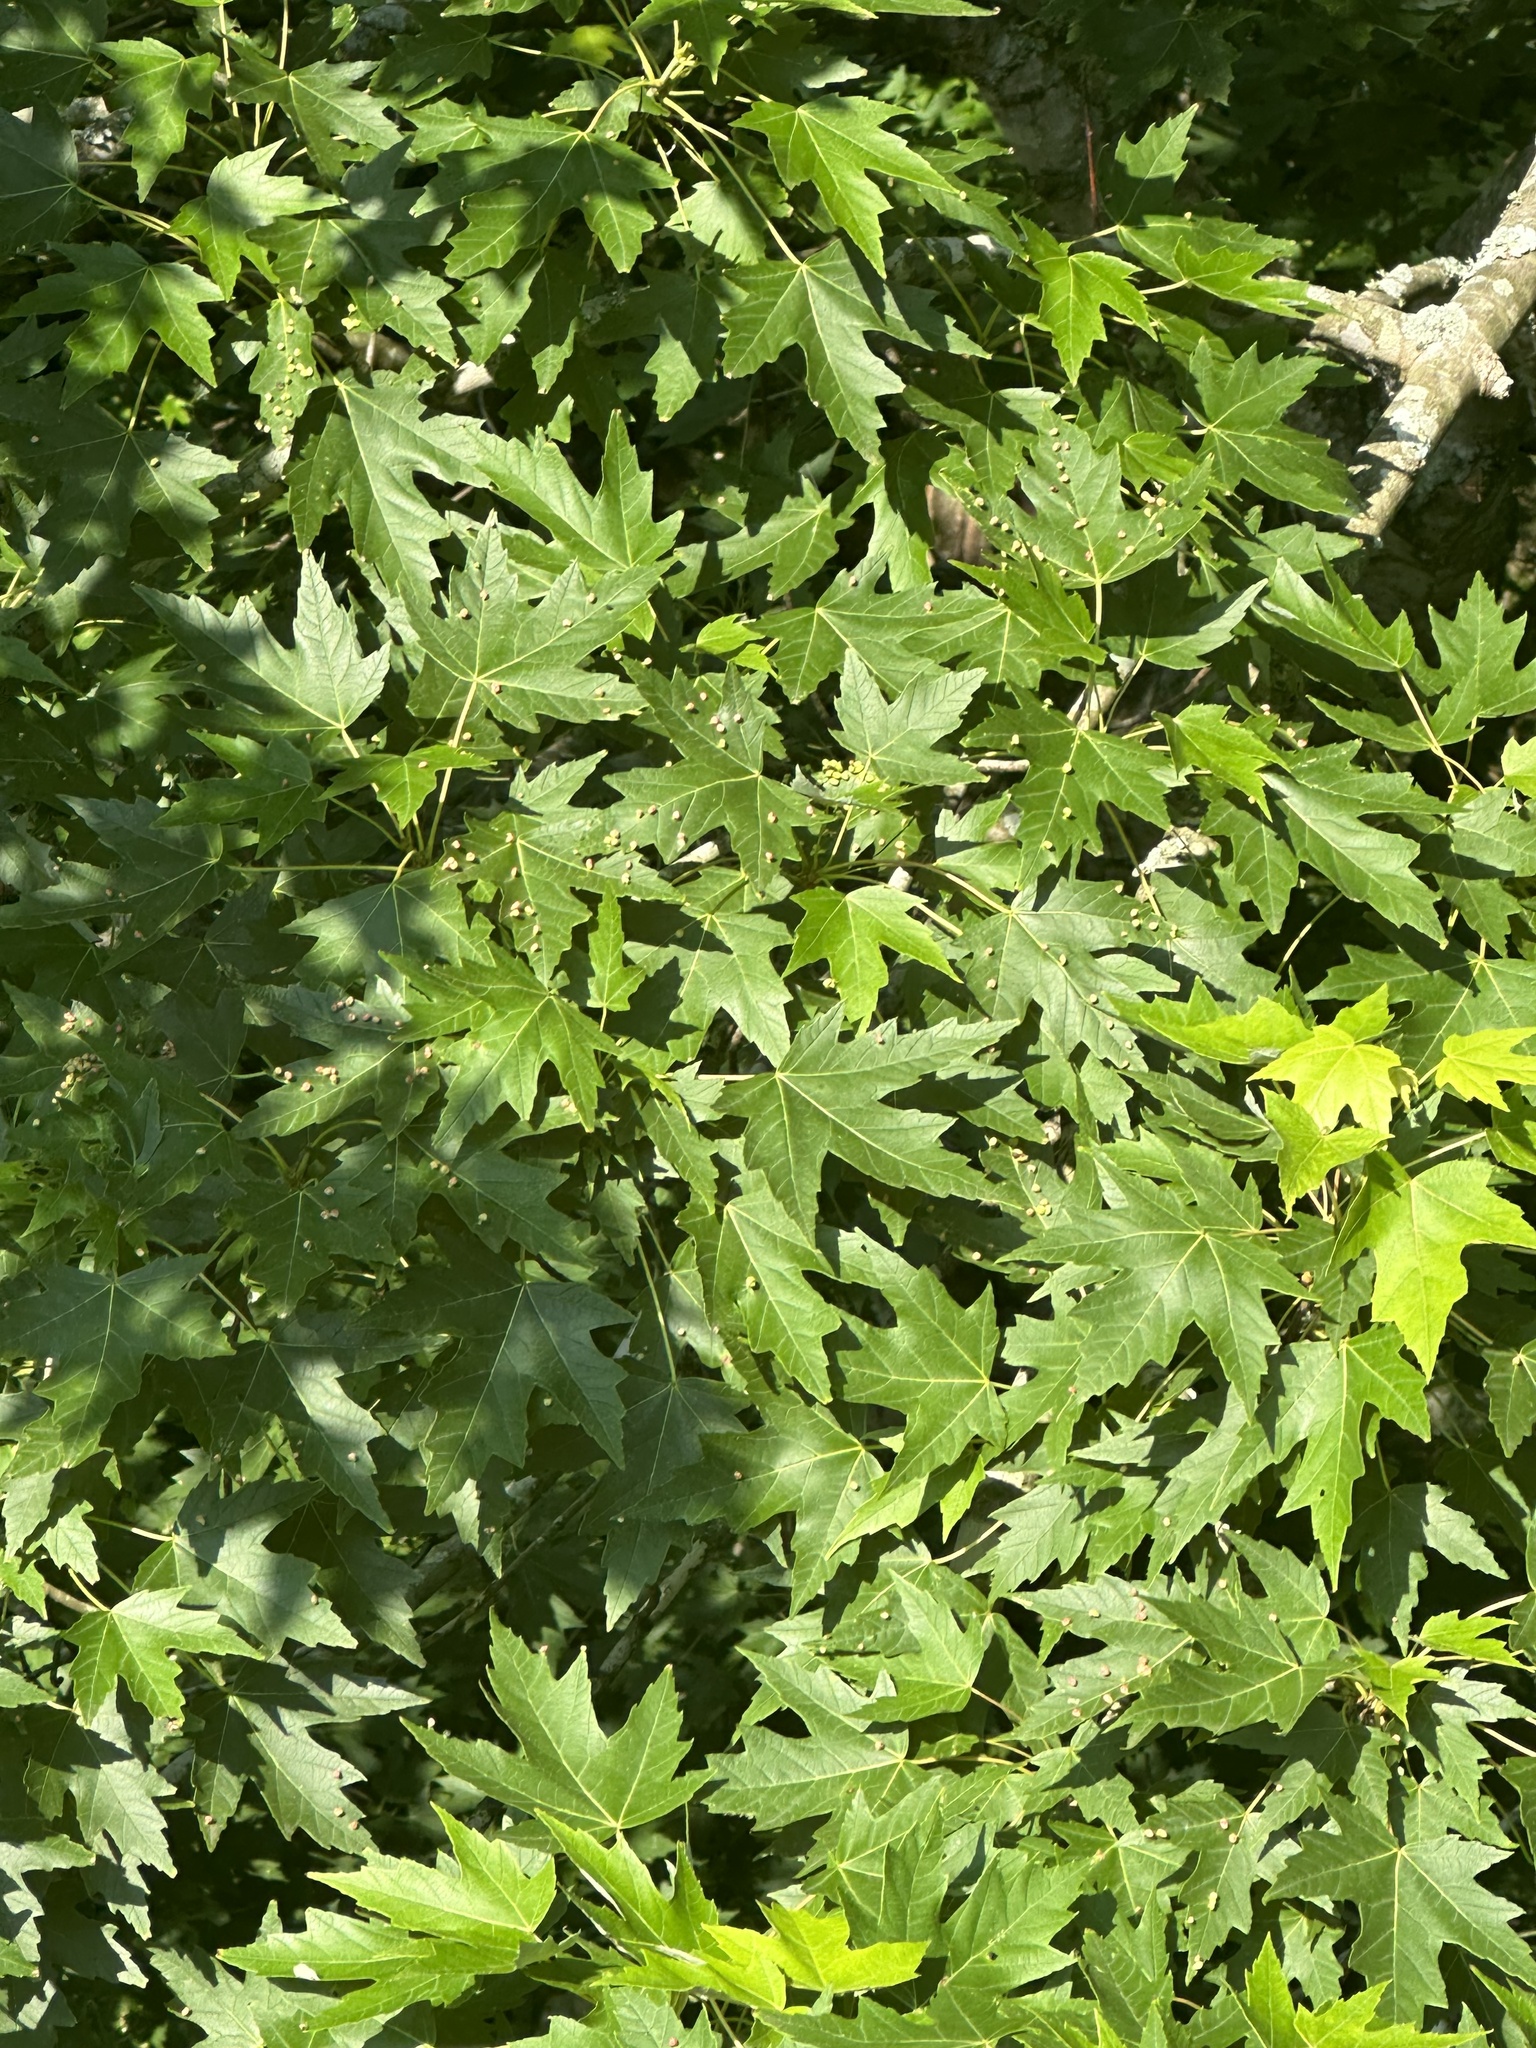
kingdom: Plantae
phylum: Tracheophyta
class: Magnoliopsida
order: Sapindales
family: Sapindaceae
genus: Acer
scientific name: Acer saccharinum
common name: Silver maple
